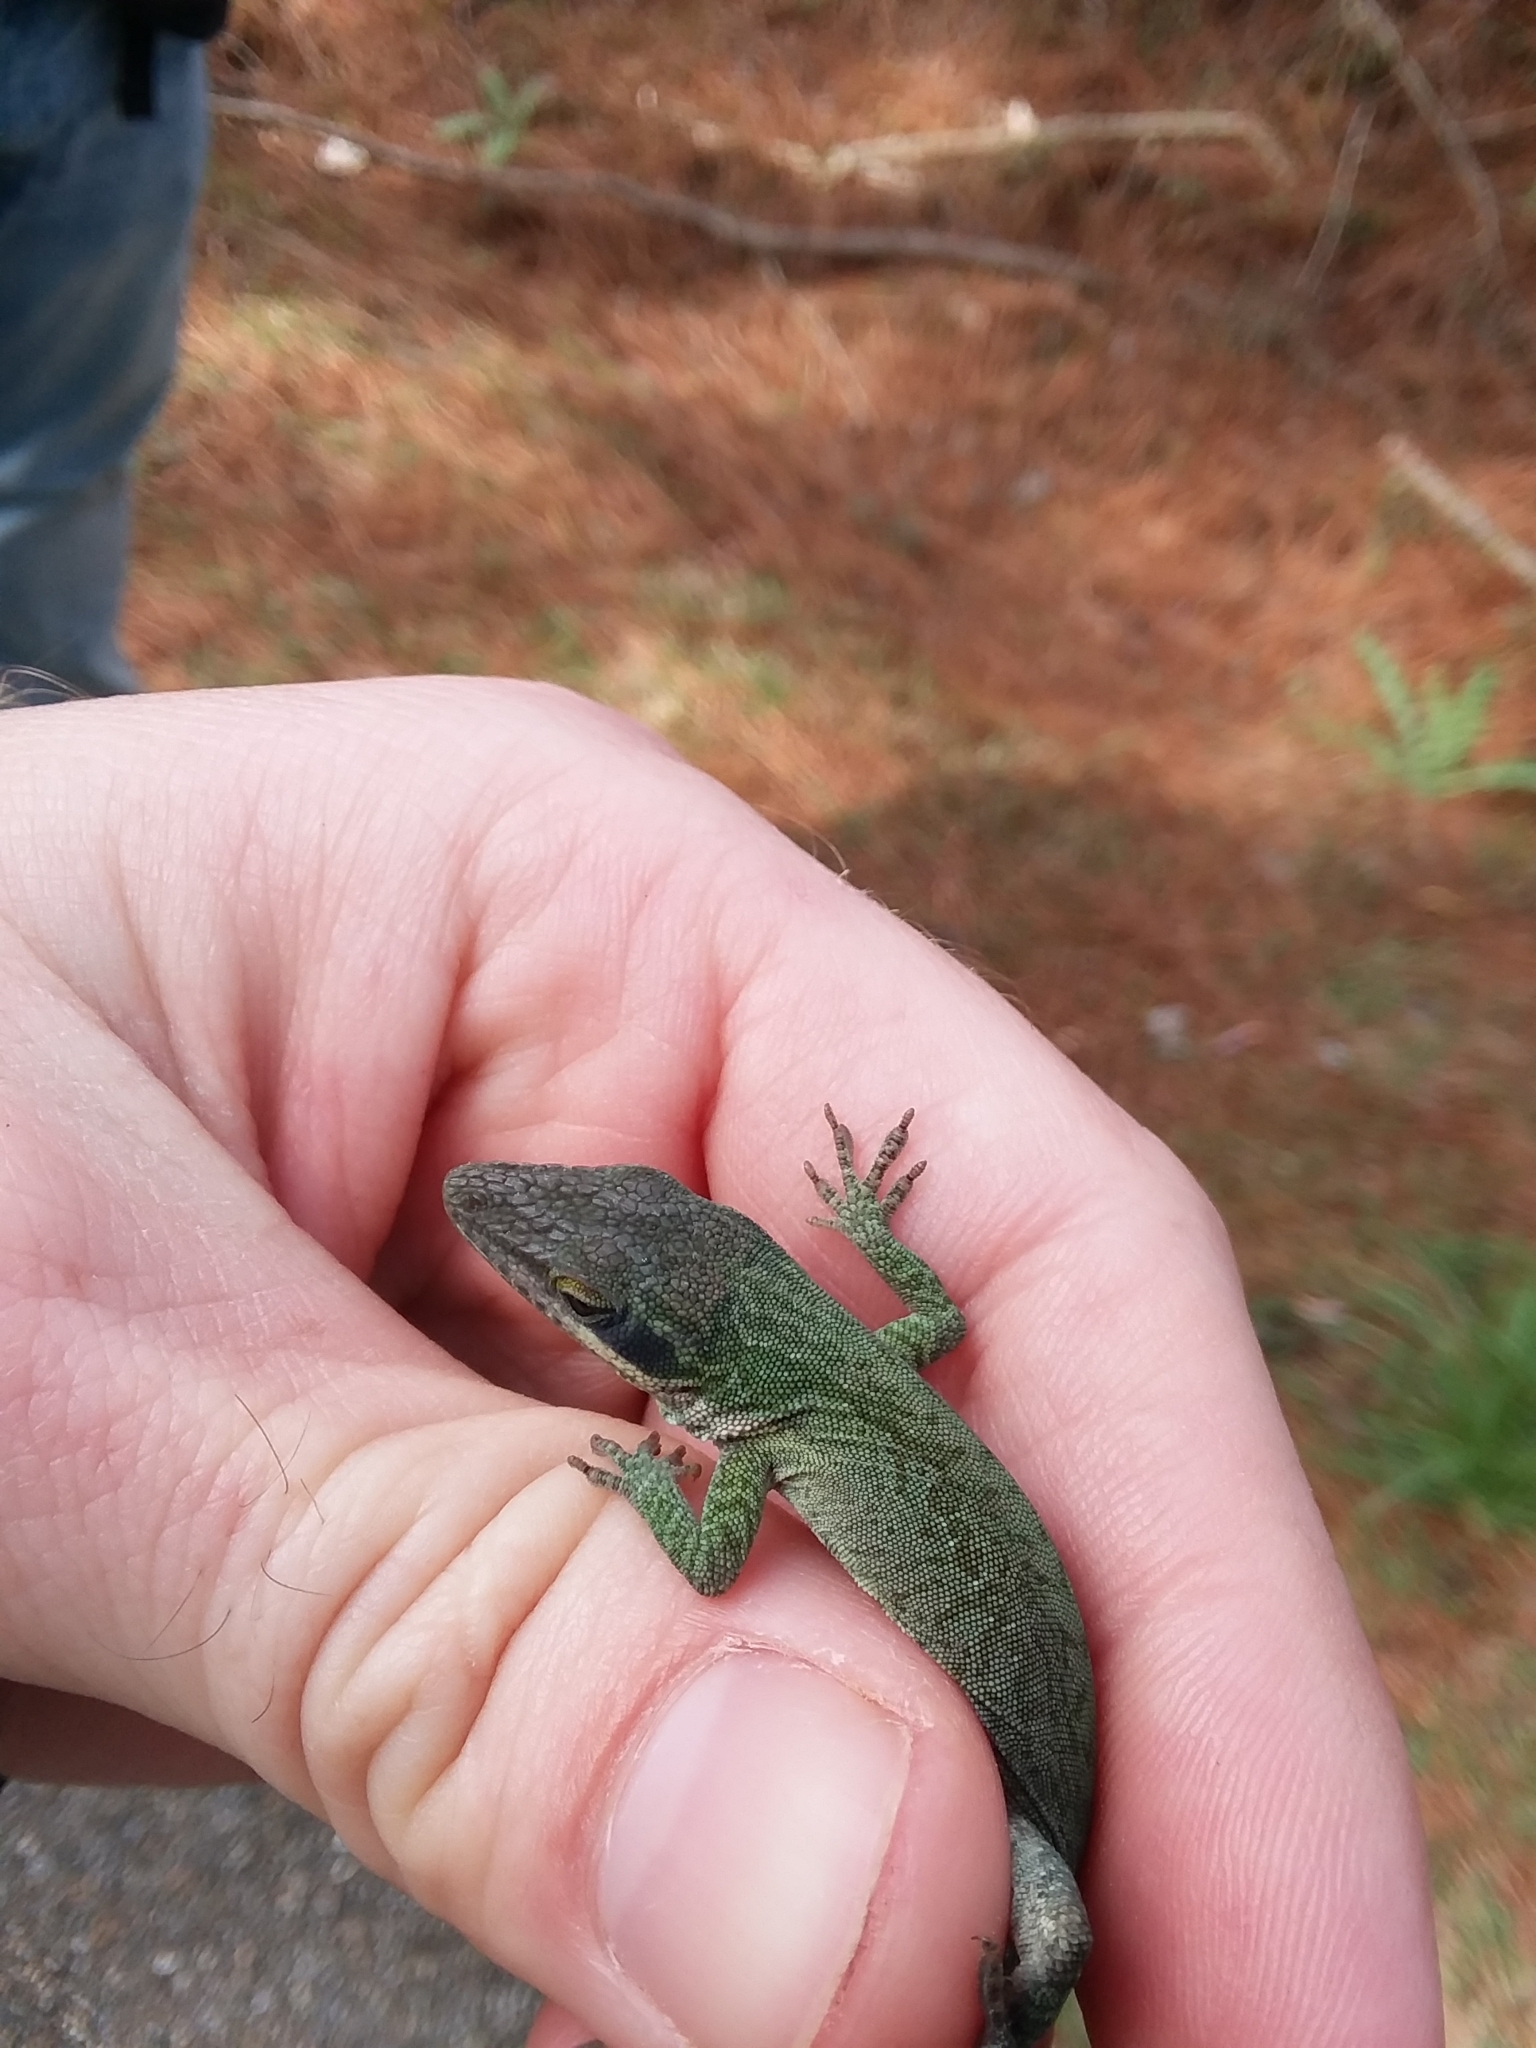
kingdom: Animalia
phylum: Chordata
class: Squamata
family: Dactyloidae
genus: Anolis
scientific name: Anolis carolinensis
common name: Green anole
